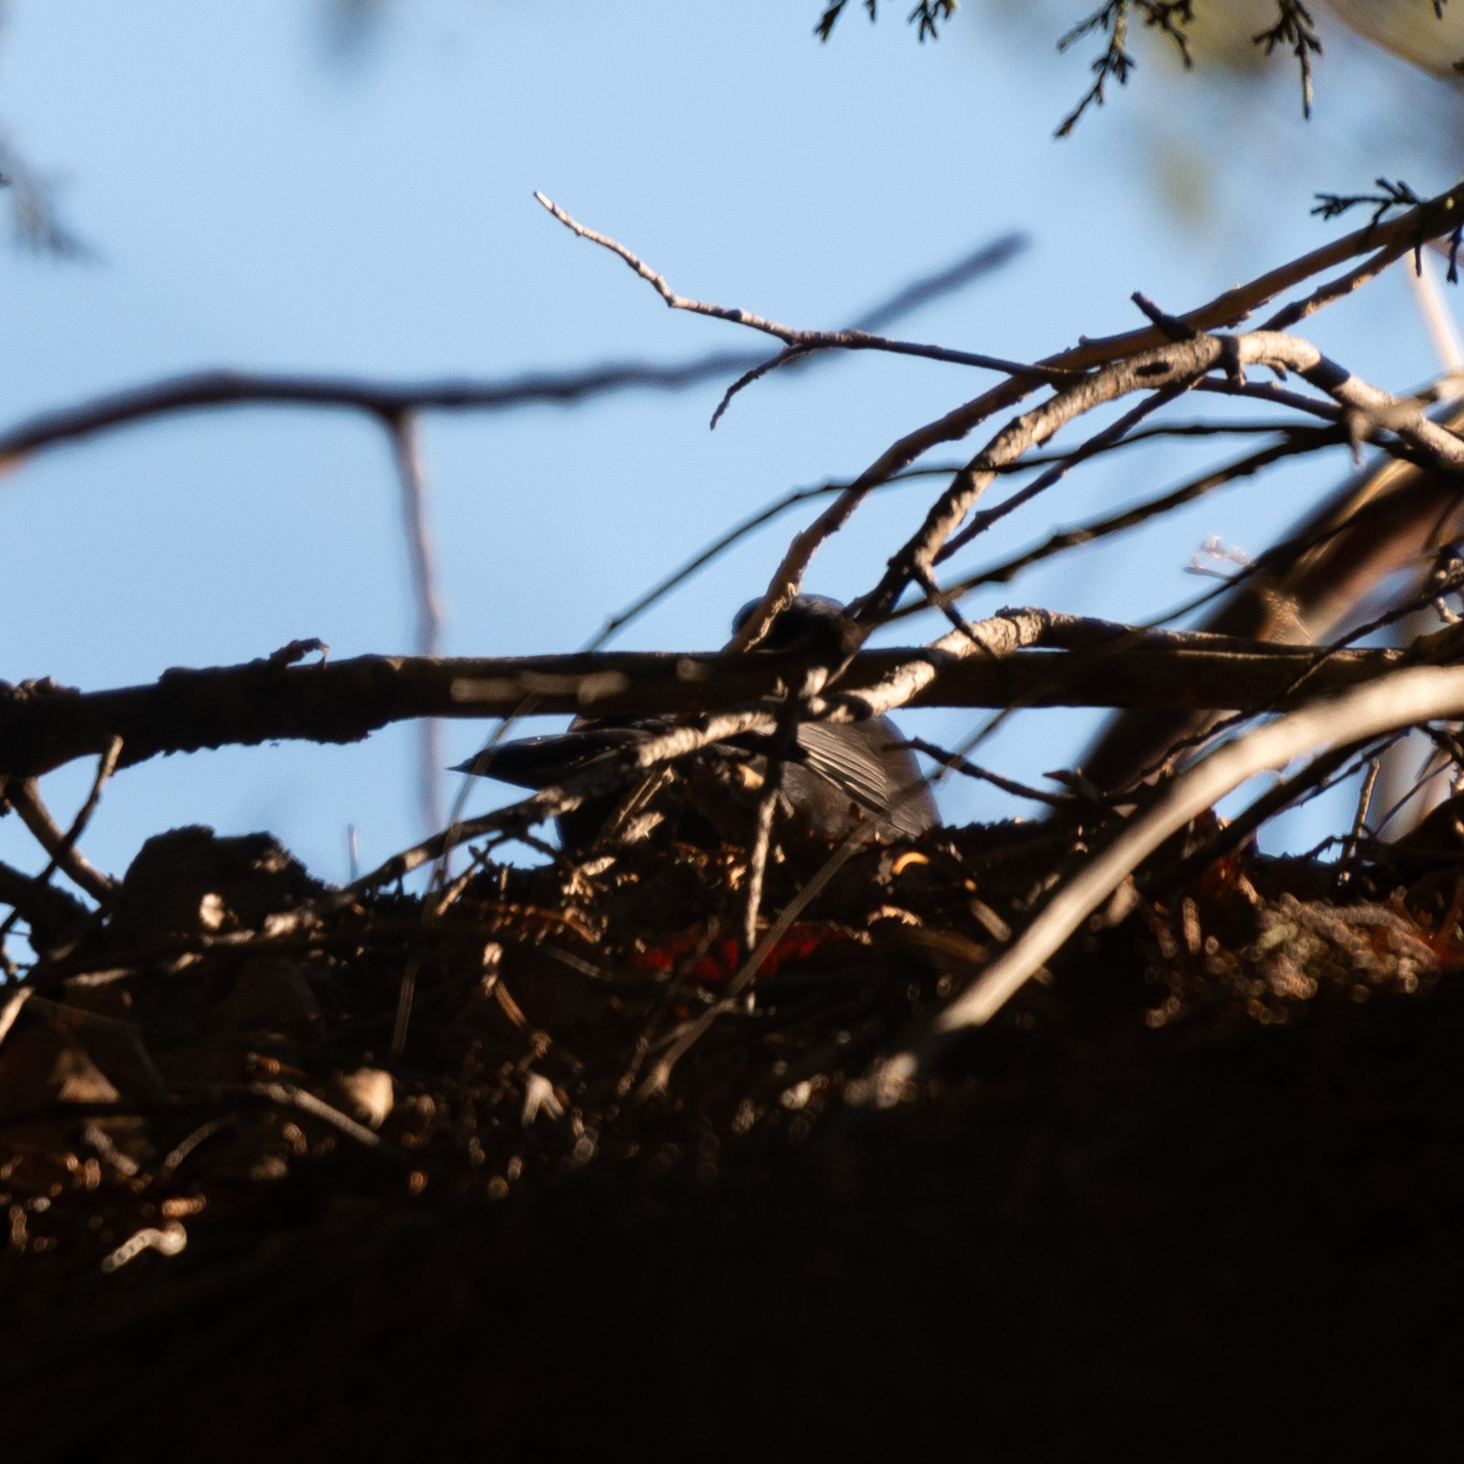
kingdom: Animalia
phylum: Chordata
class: Aves
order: Passeriformes
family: Turdidae
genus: Turdus
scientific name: Turdus merula
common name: Common blackbird
